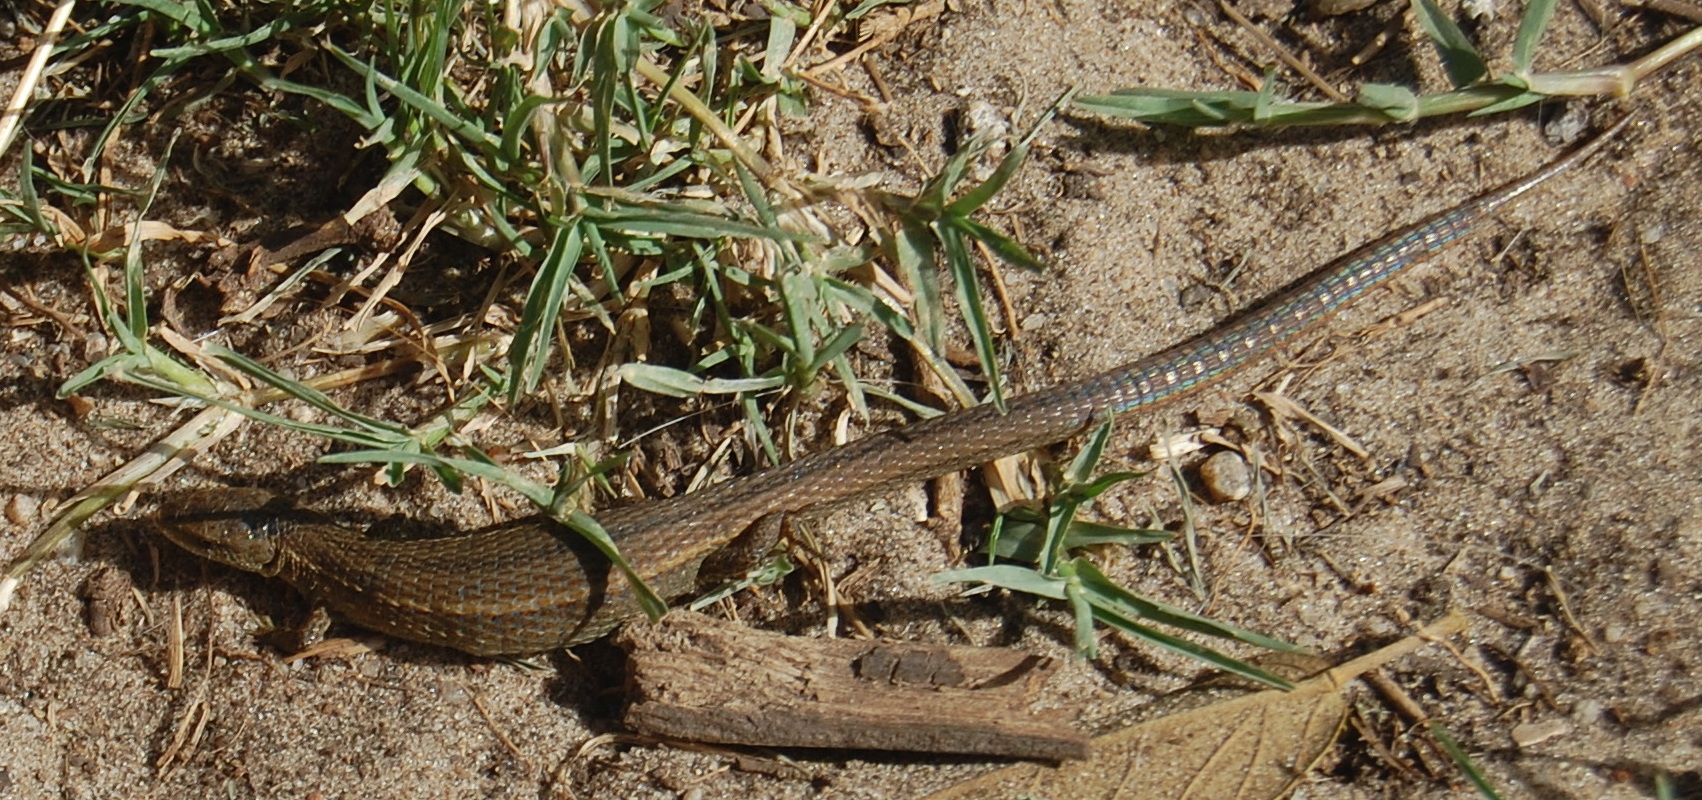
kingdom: Animalia
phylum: Chordata
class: Squamata
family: Gymnophthalmidae
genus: Cercosaura
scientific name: Cercosaura schreibersii
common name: Schreibers' many-fingered teiid
